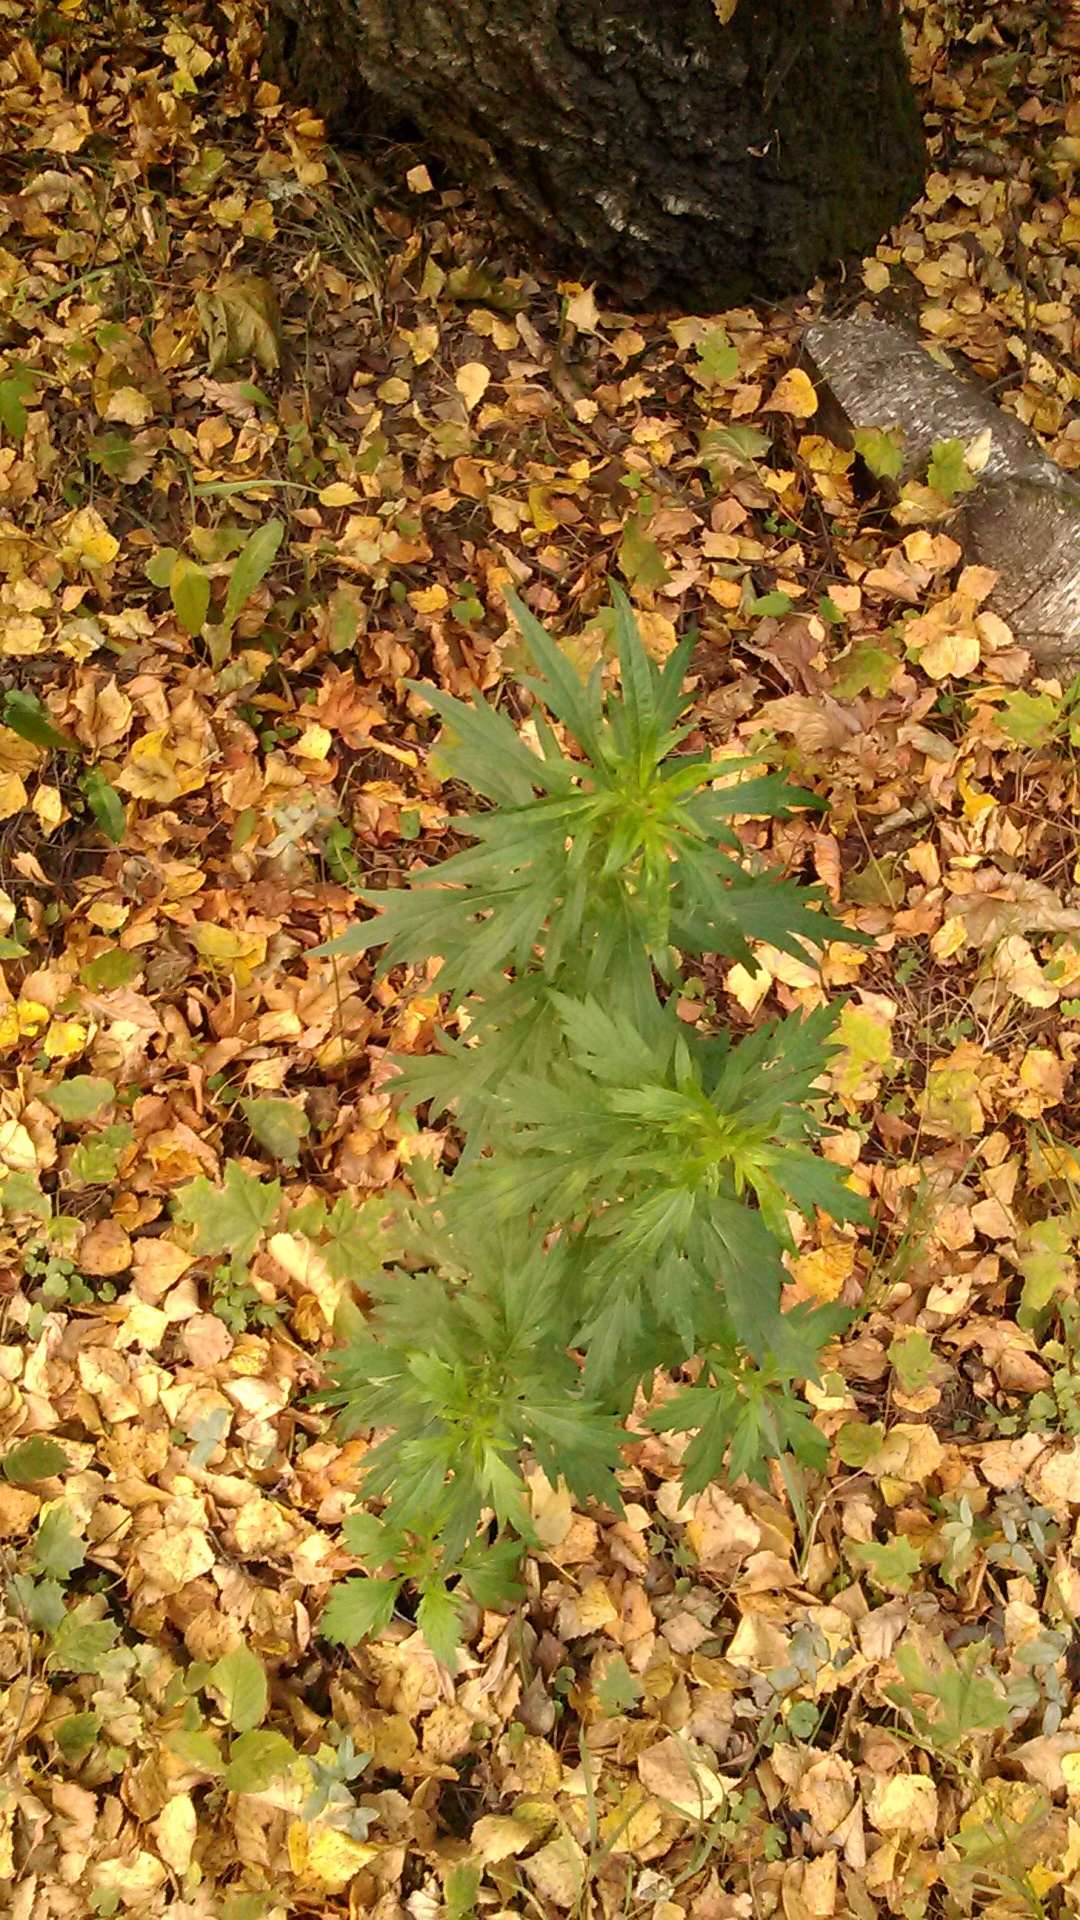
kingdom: Plantae
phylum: Tracheophyta
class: Magnoliopsida
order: Asterales
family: Asteraceae
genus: Artemisia
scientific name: Artemisia vulgaris
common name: Mugwort
